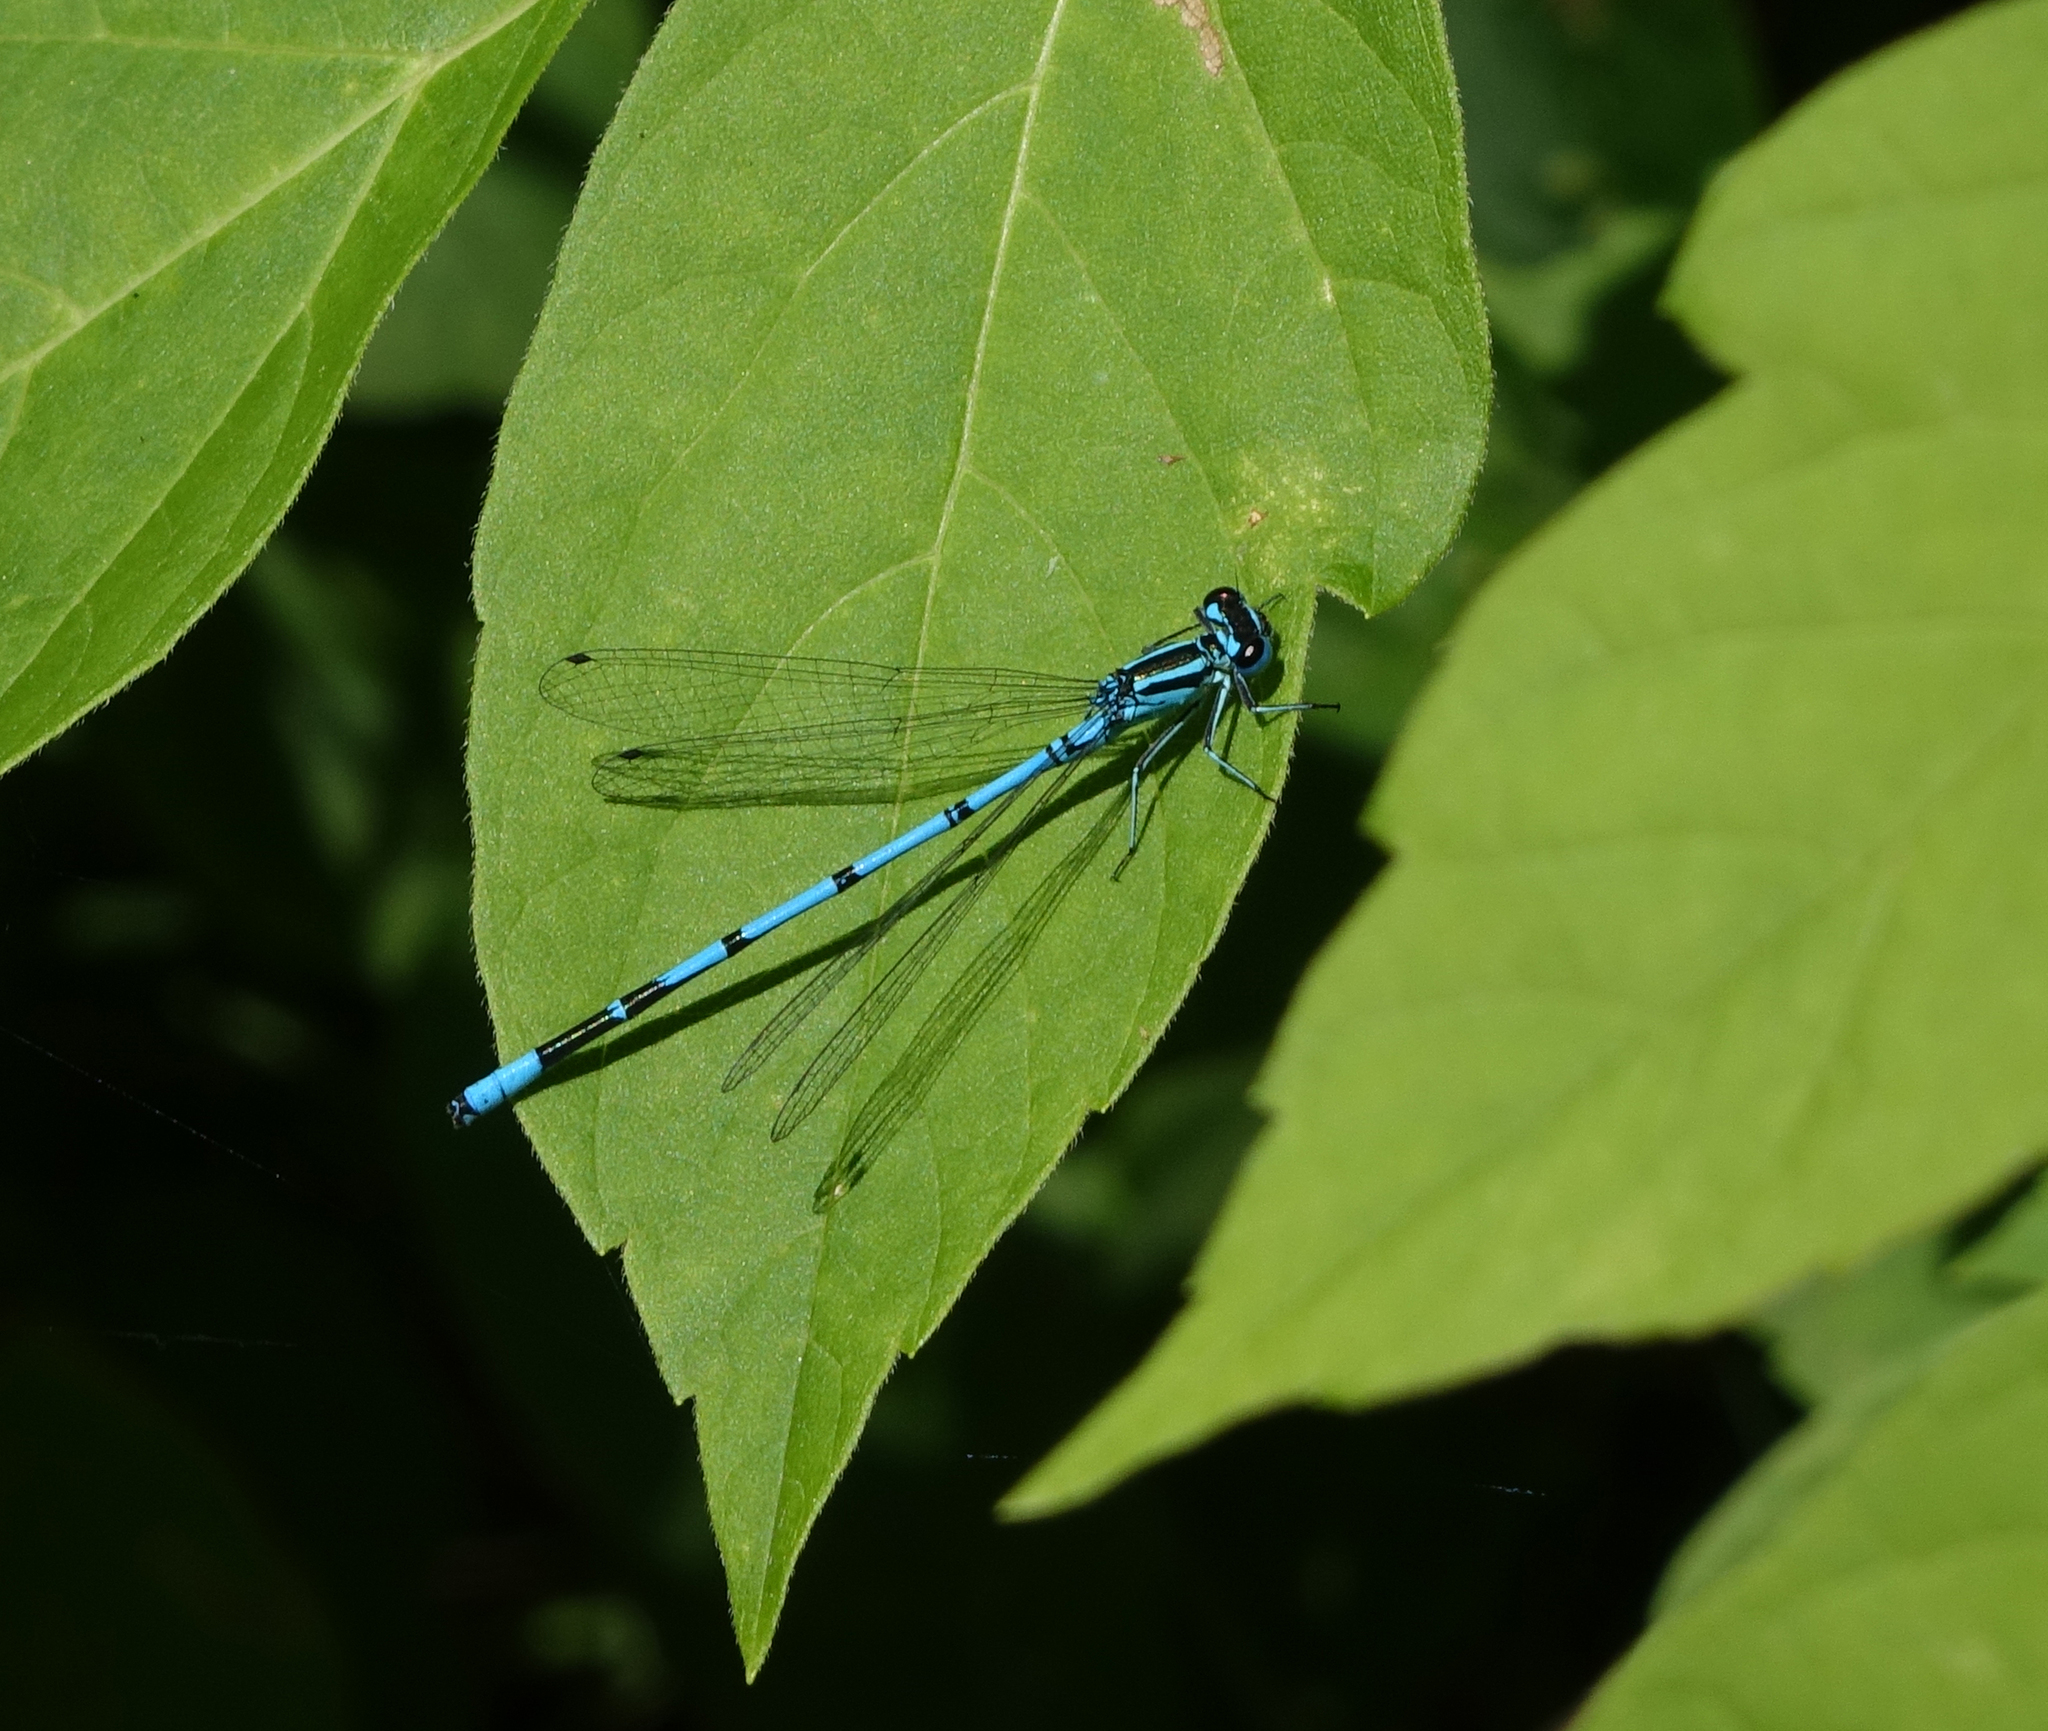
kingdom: Plantae
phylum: Tracheophyta
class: Magnoliopsida
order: Sapindales
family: Sapindaceae
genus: Acer
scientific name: Acer negundo
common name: Ashleaf maple
